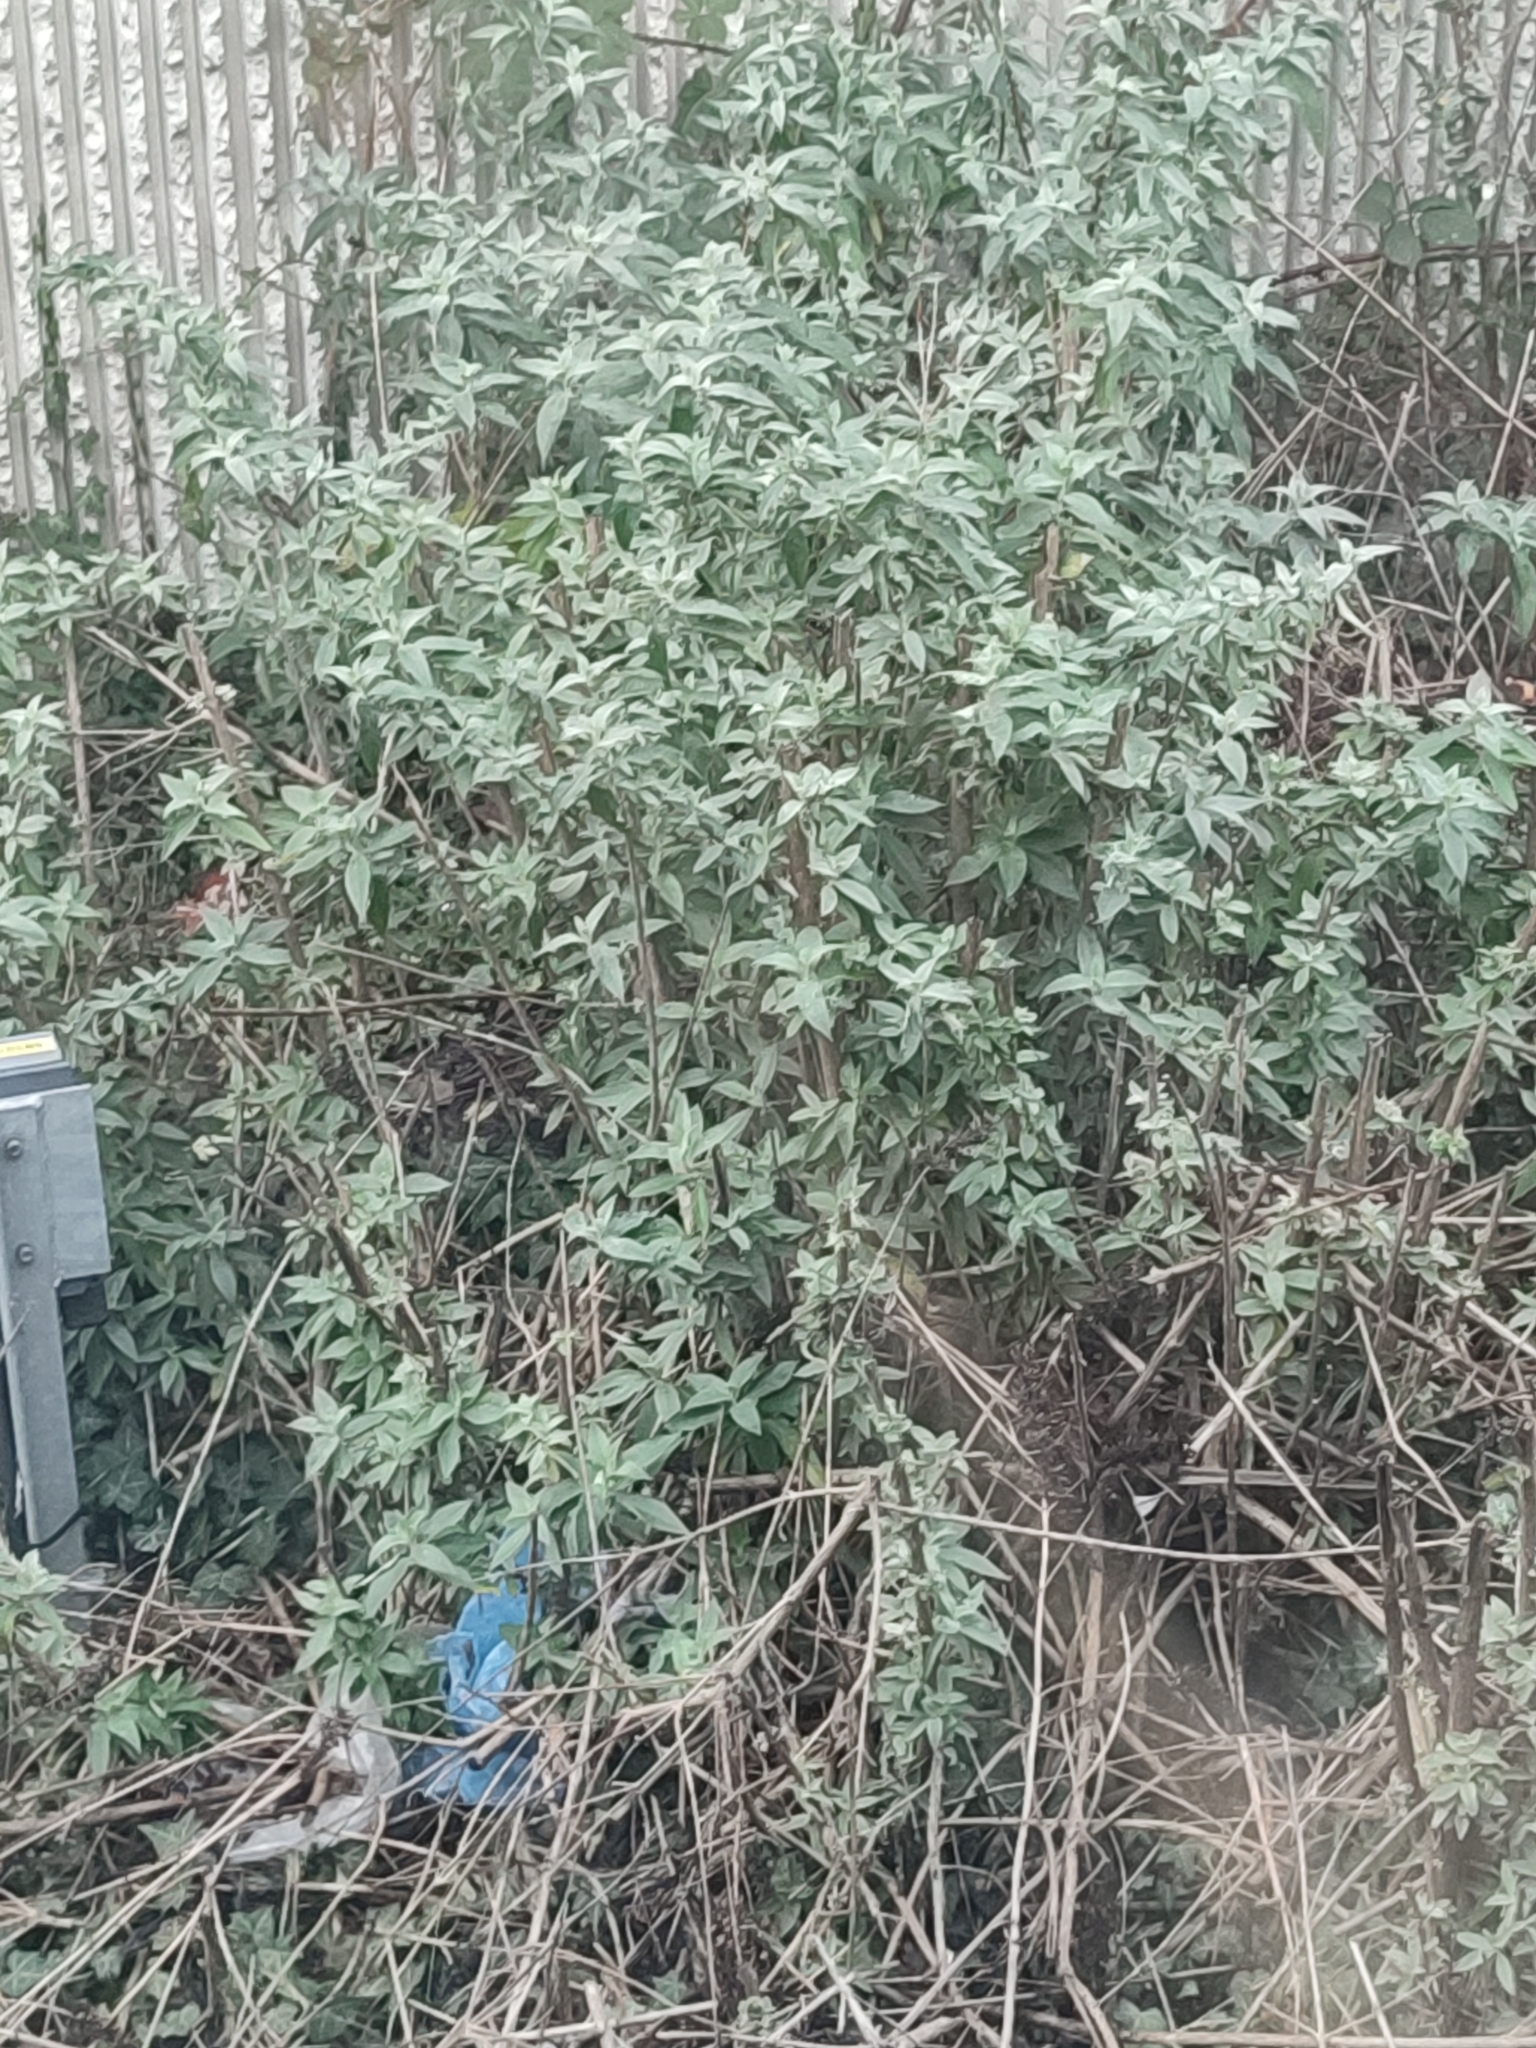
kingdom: Plantae
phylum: Tracheophyta
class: Magnoliopsida
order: Lamiales
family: Scrophulariaceae
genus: Buddleja
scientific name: Buddleja davidii
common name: Butterfly-bush
